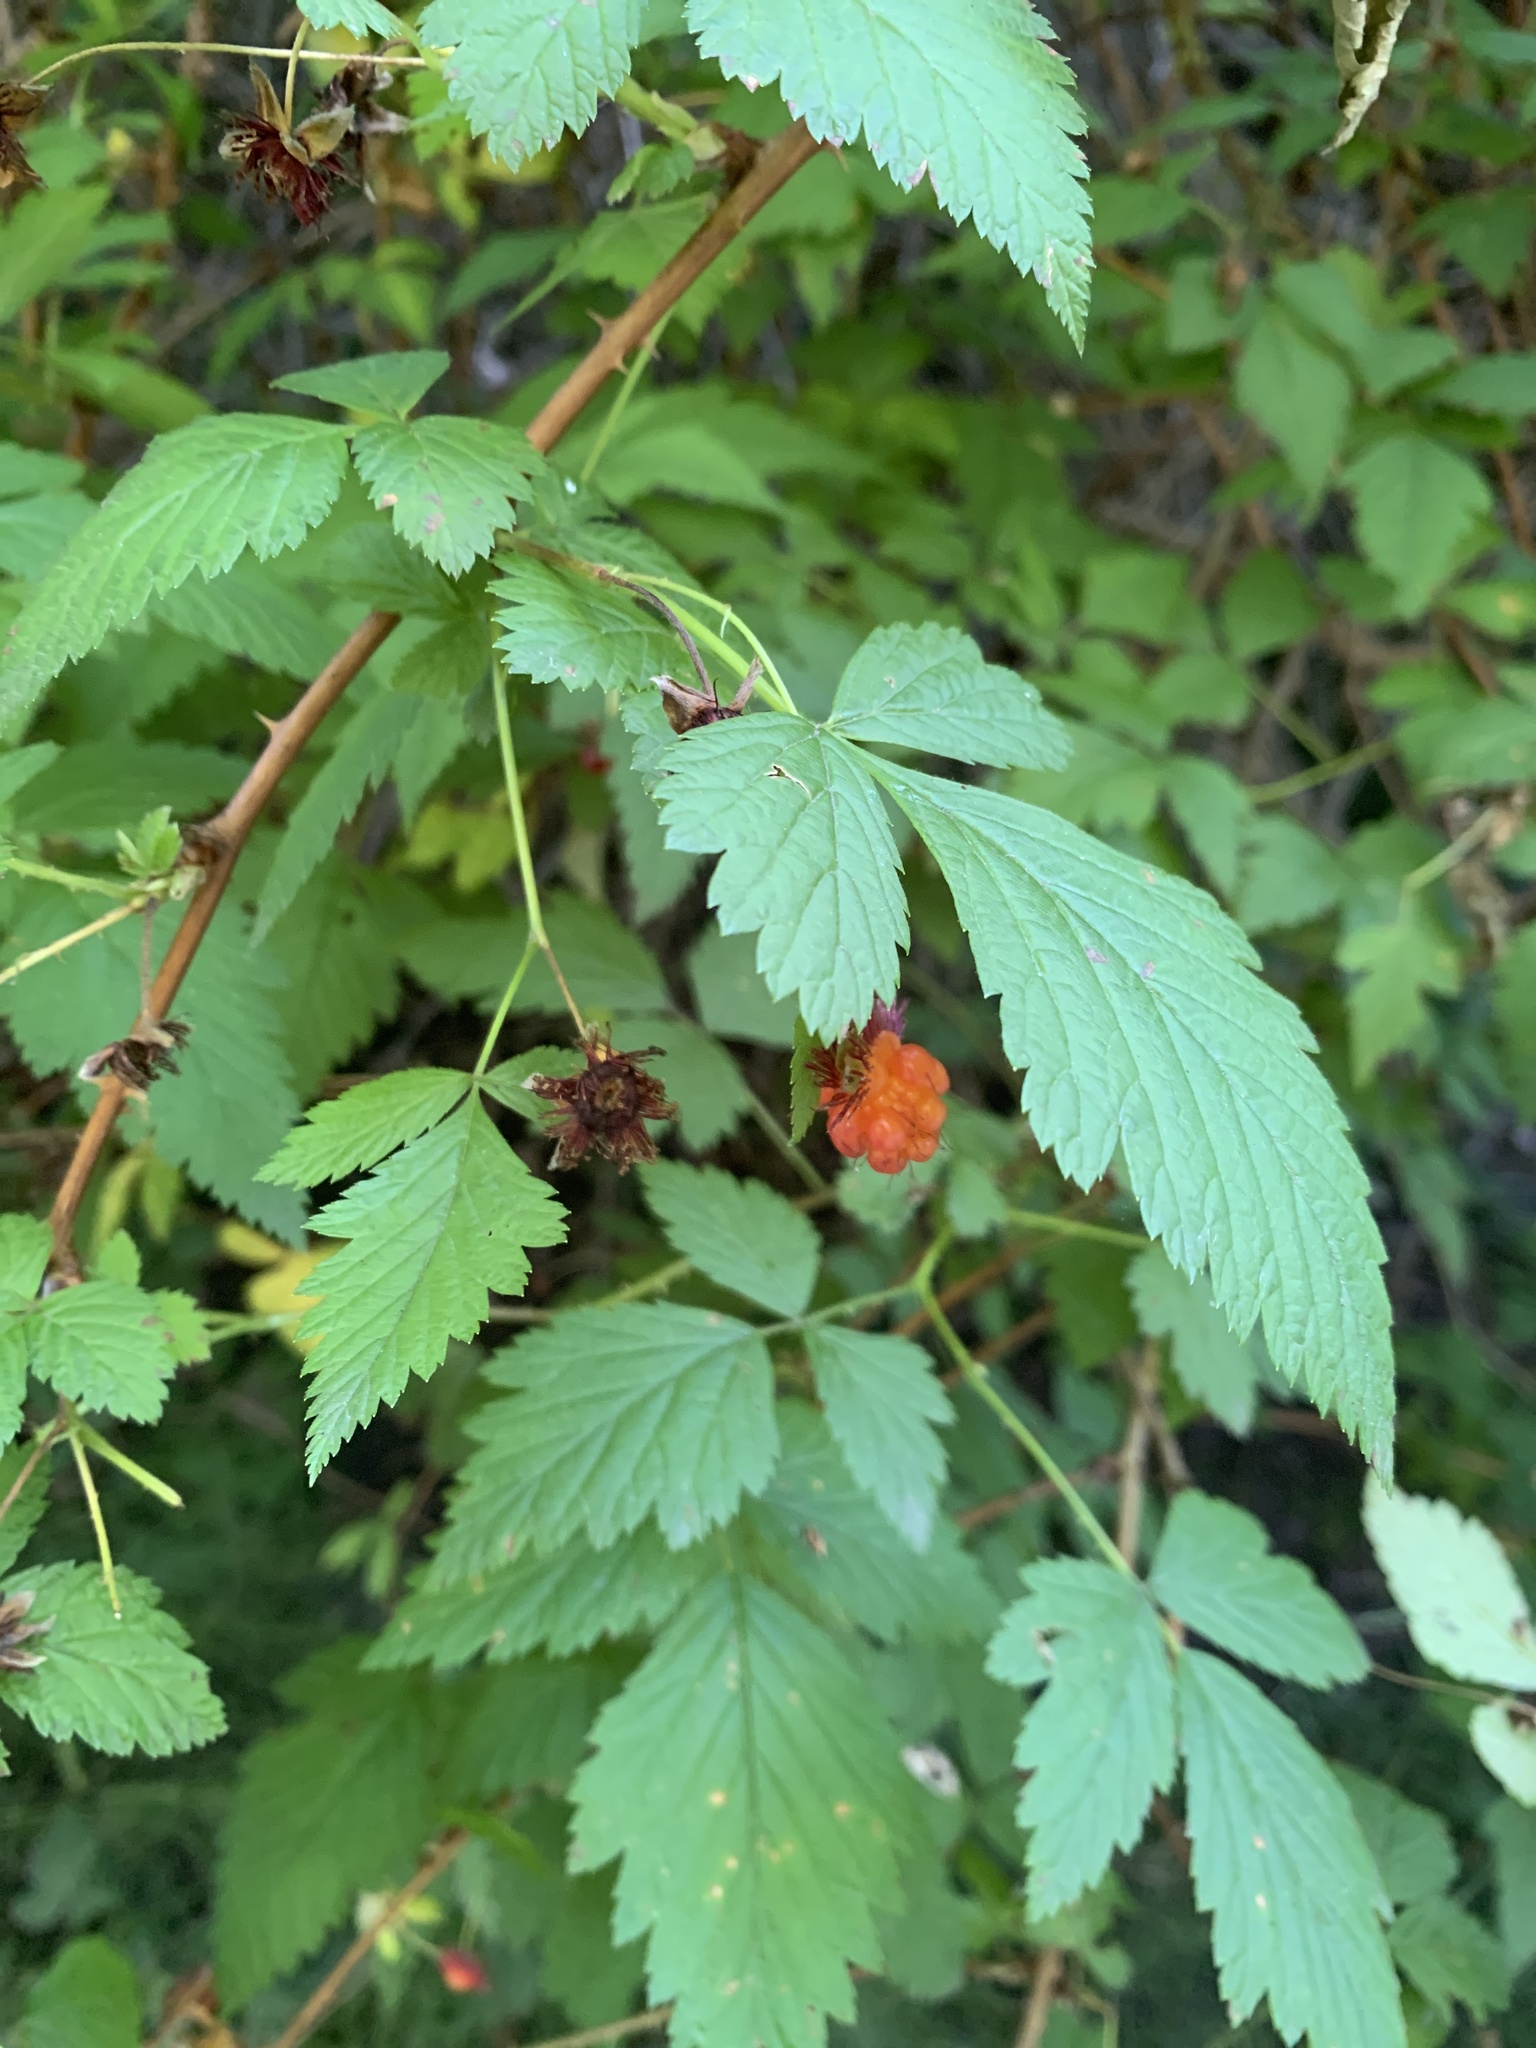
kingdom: Plantae
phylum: Tracheophyta
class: Magnoliopsida
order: Rosales
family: Rosaceae
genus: Rubus
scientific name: Rubus spectabilis
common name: Salmonberry
